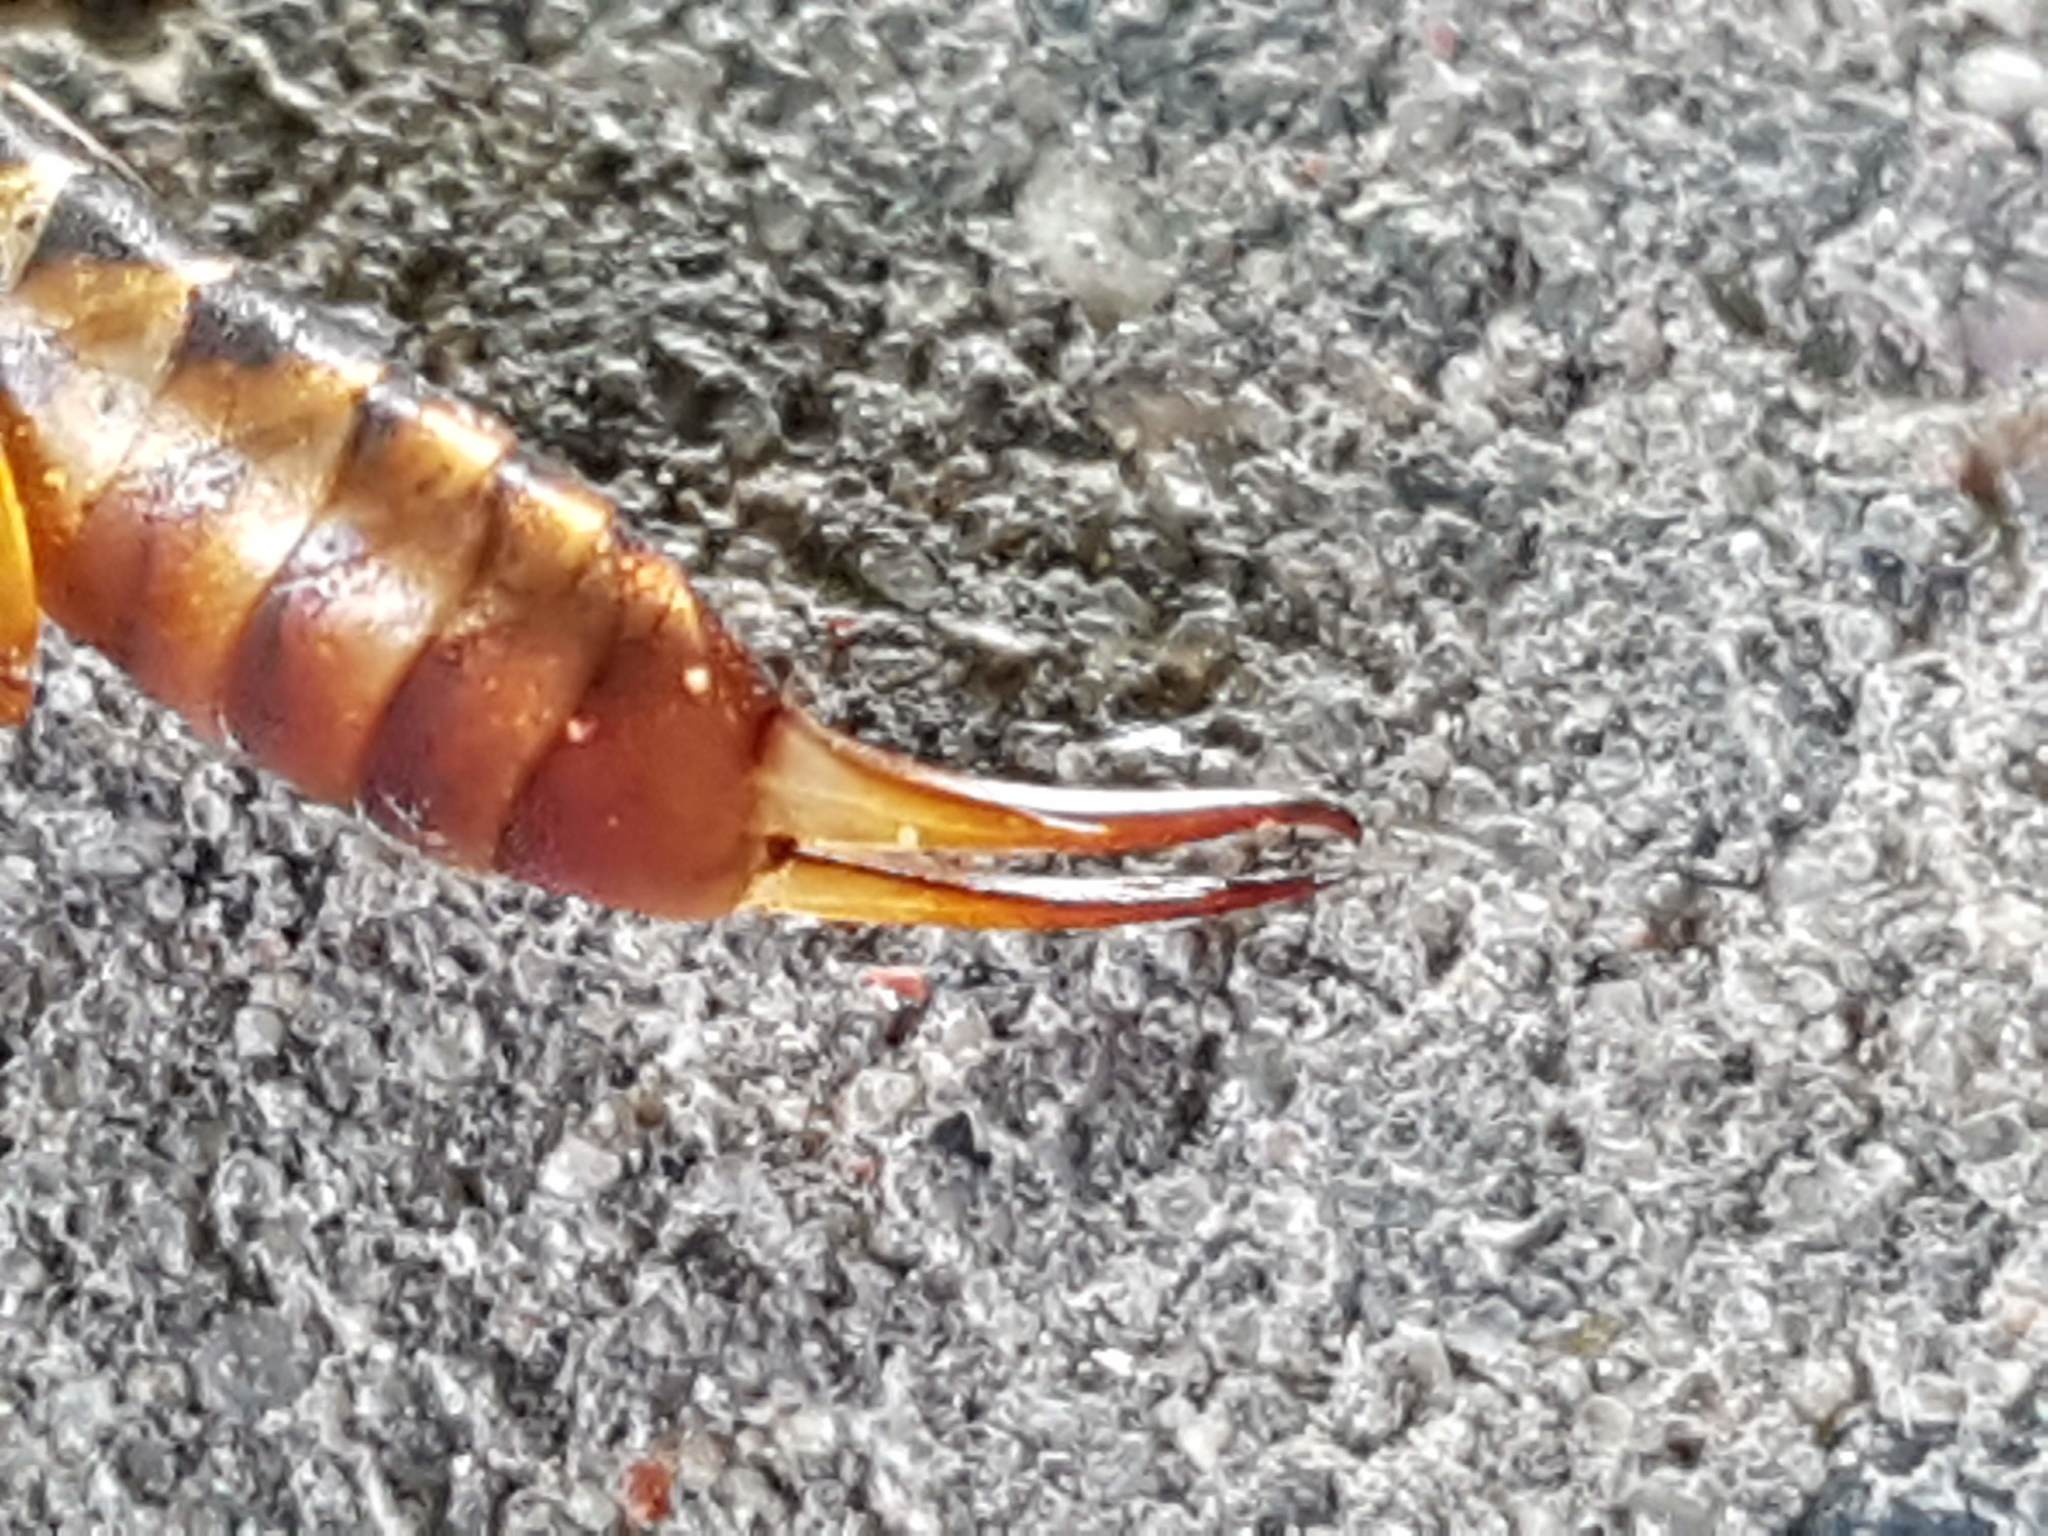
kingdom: Animalia
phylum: Arthropoda
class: Insecta
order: Dermaptera
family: Forficulidae
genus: Forficula
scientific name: Forficula
